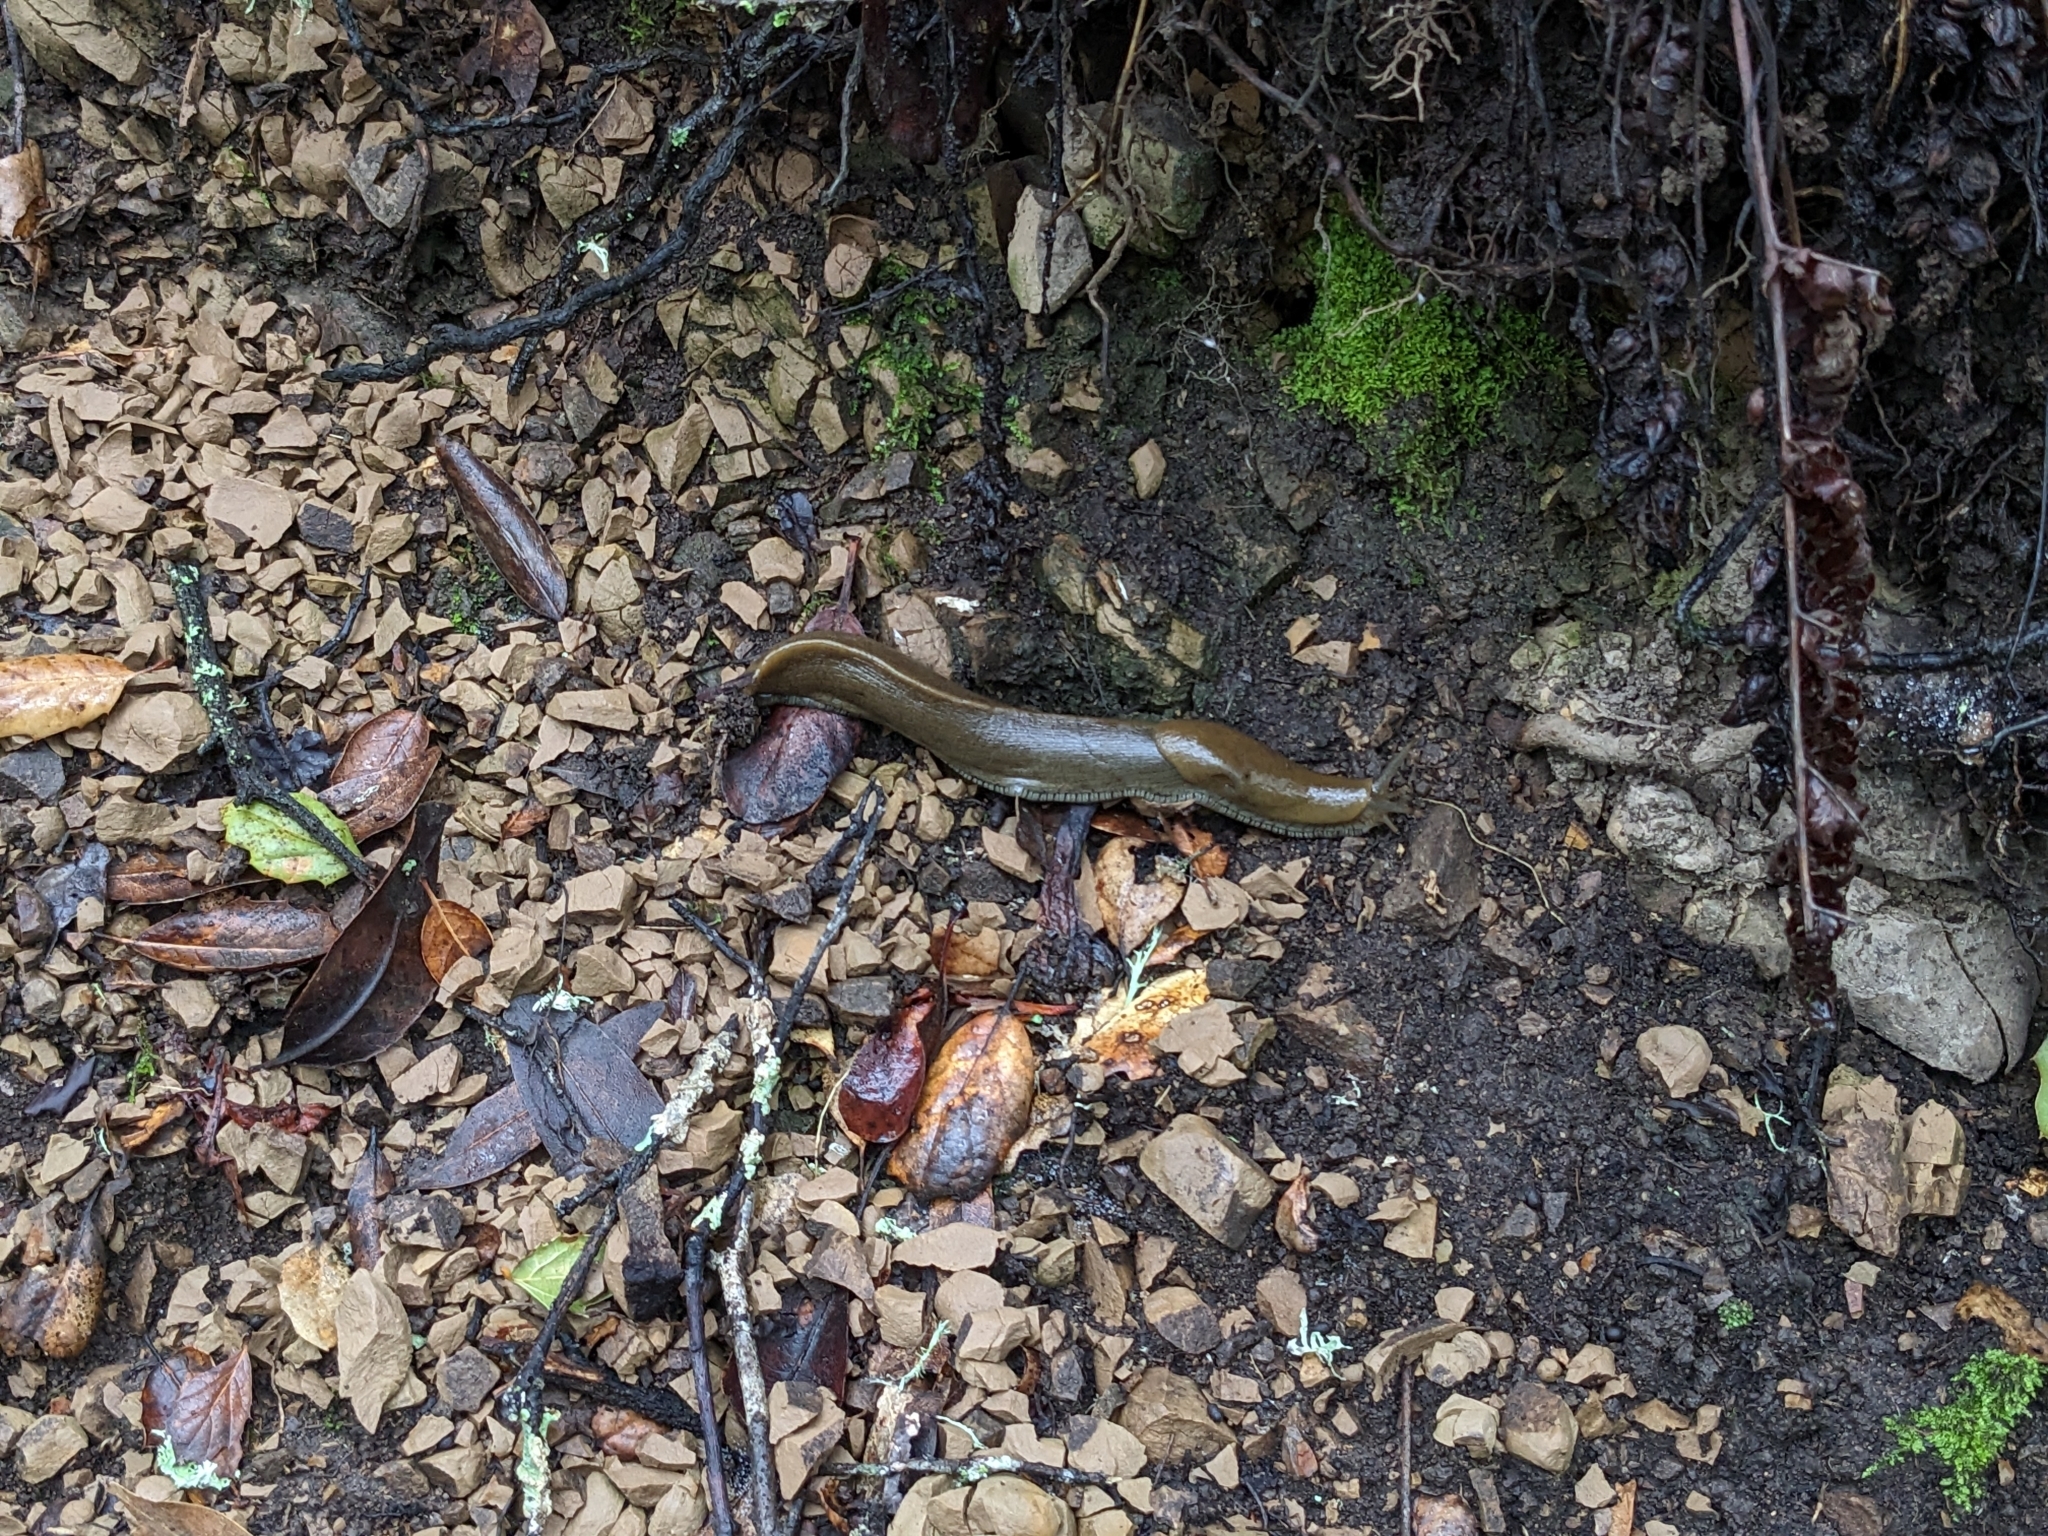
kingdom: Animalia
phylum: Mollusca
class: Gastropoda
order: Stylommatophora
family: Ariolimacidae
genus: Ariolimax
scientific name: Ariolimax buttoni
